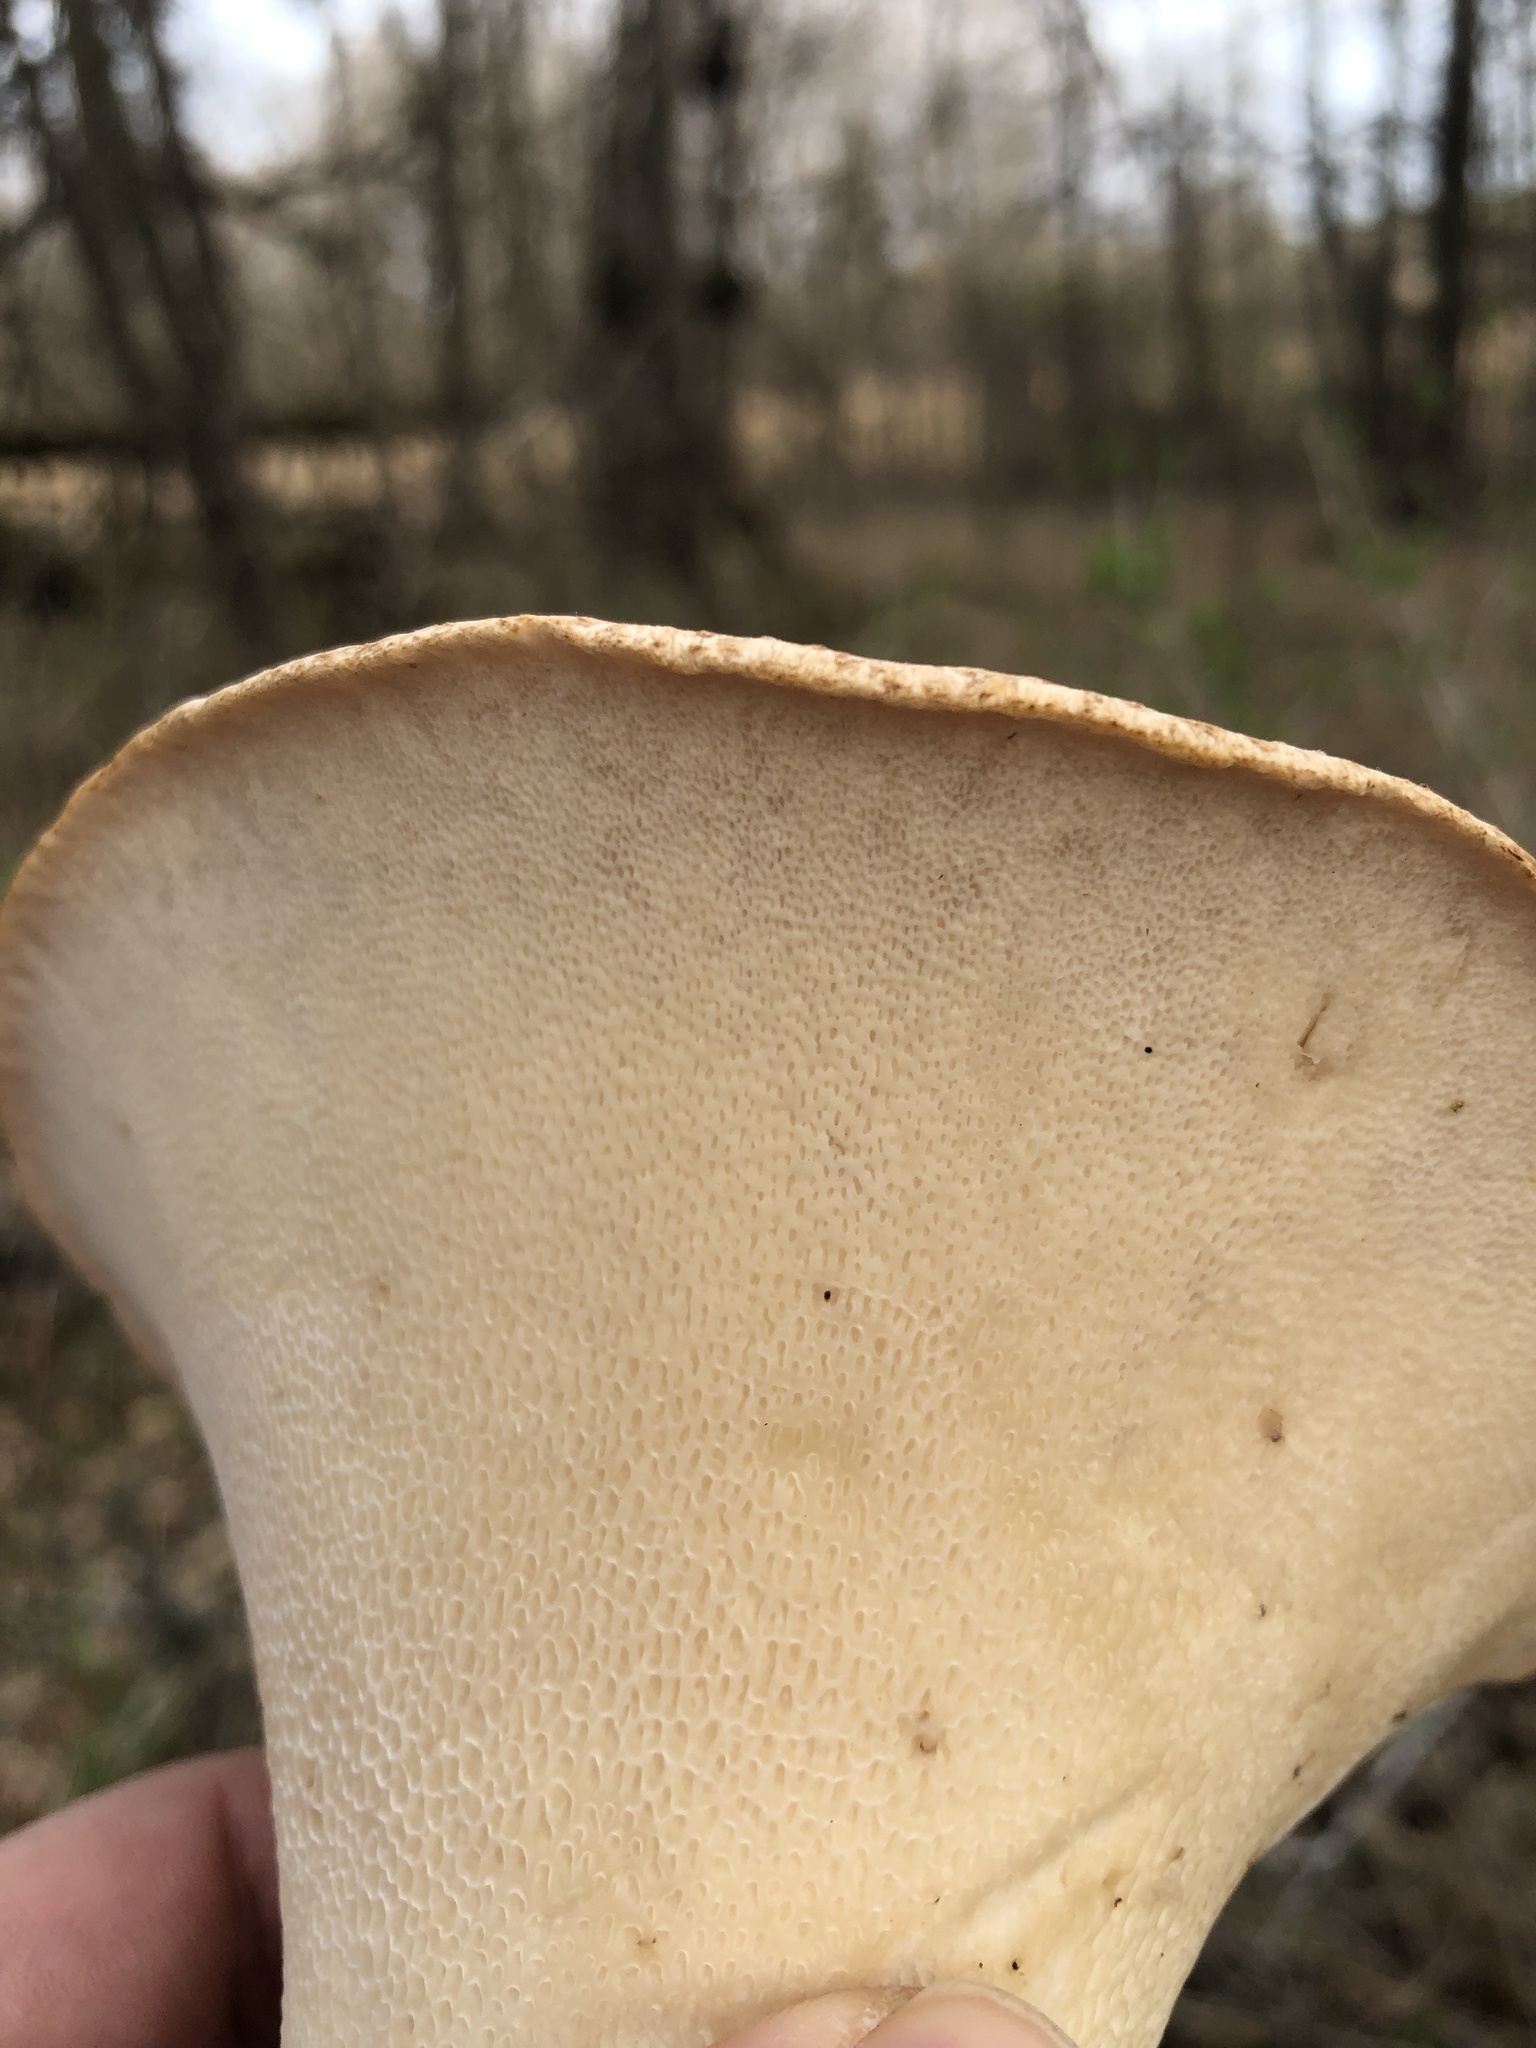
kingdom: Fungi
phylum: Basidiomycota
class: Agaricomycetes
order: Polyporales
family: Polyporaceae
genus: Cerioporus
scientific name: Cerioporus squamosus
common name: Dryad's saddle
